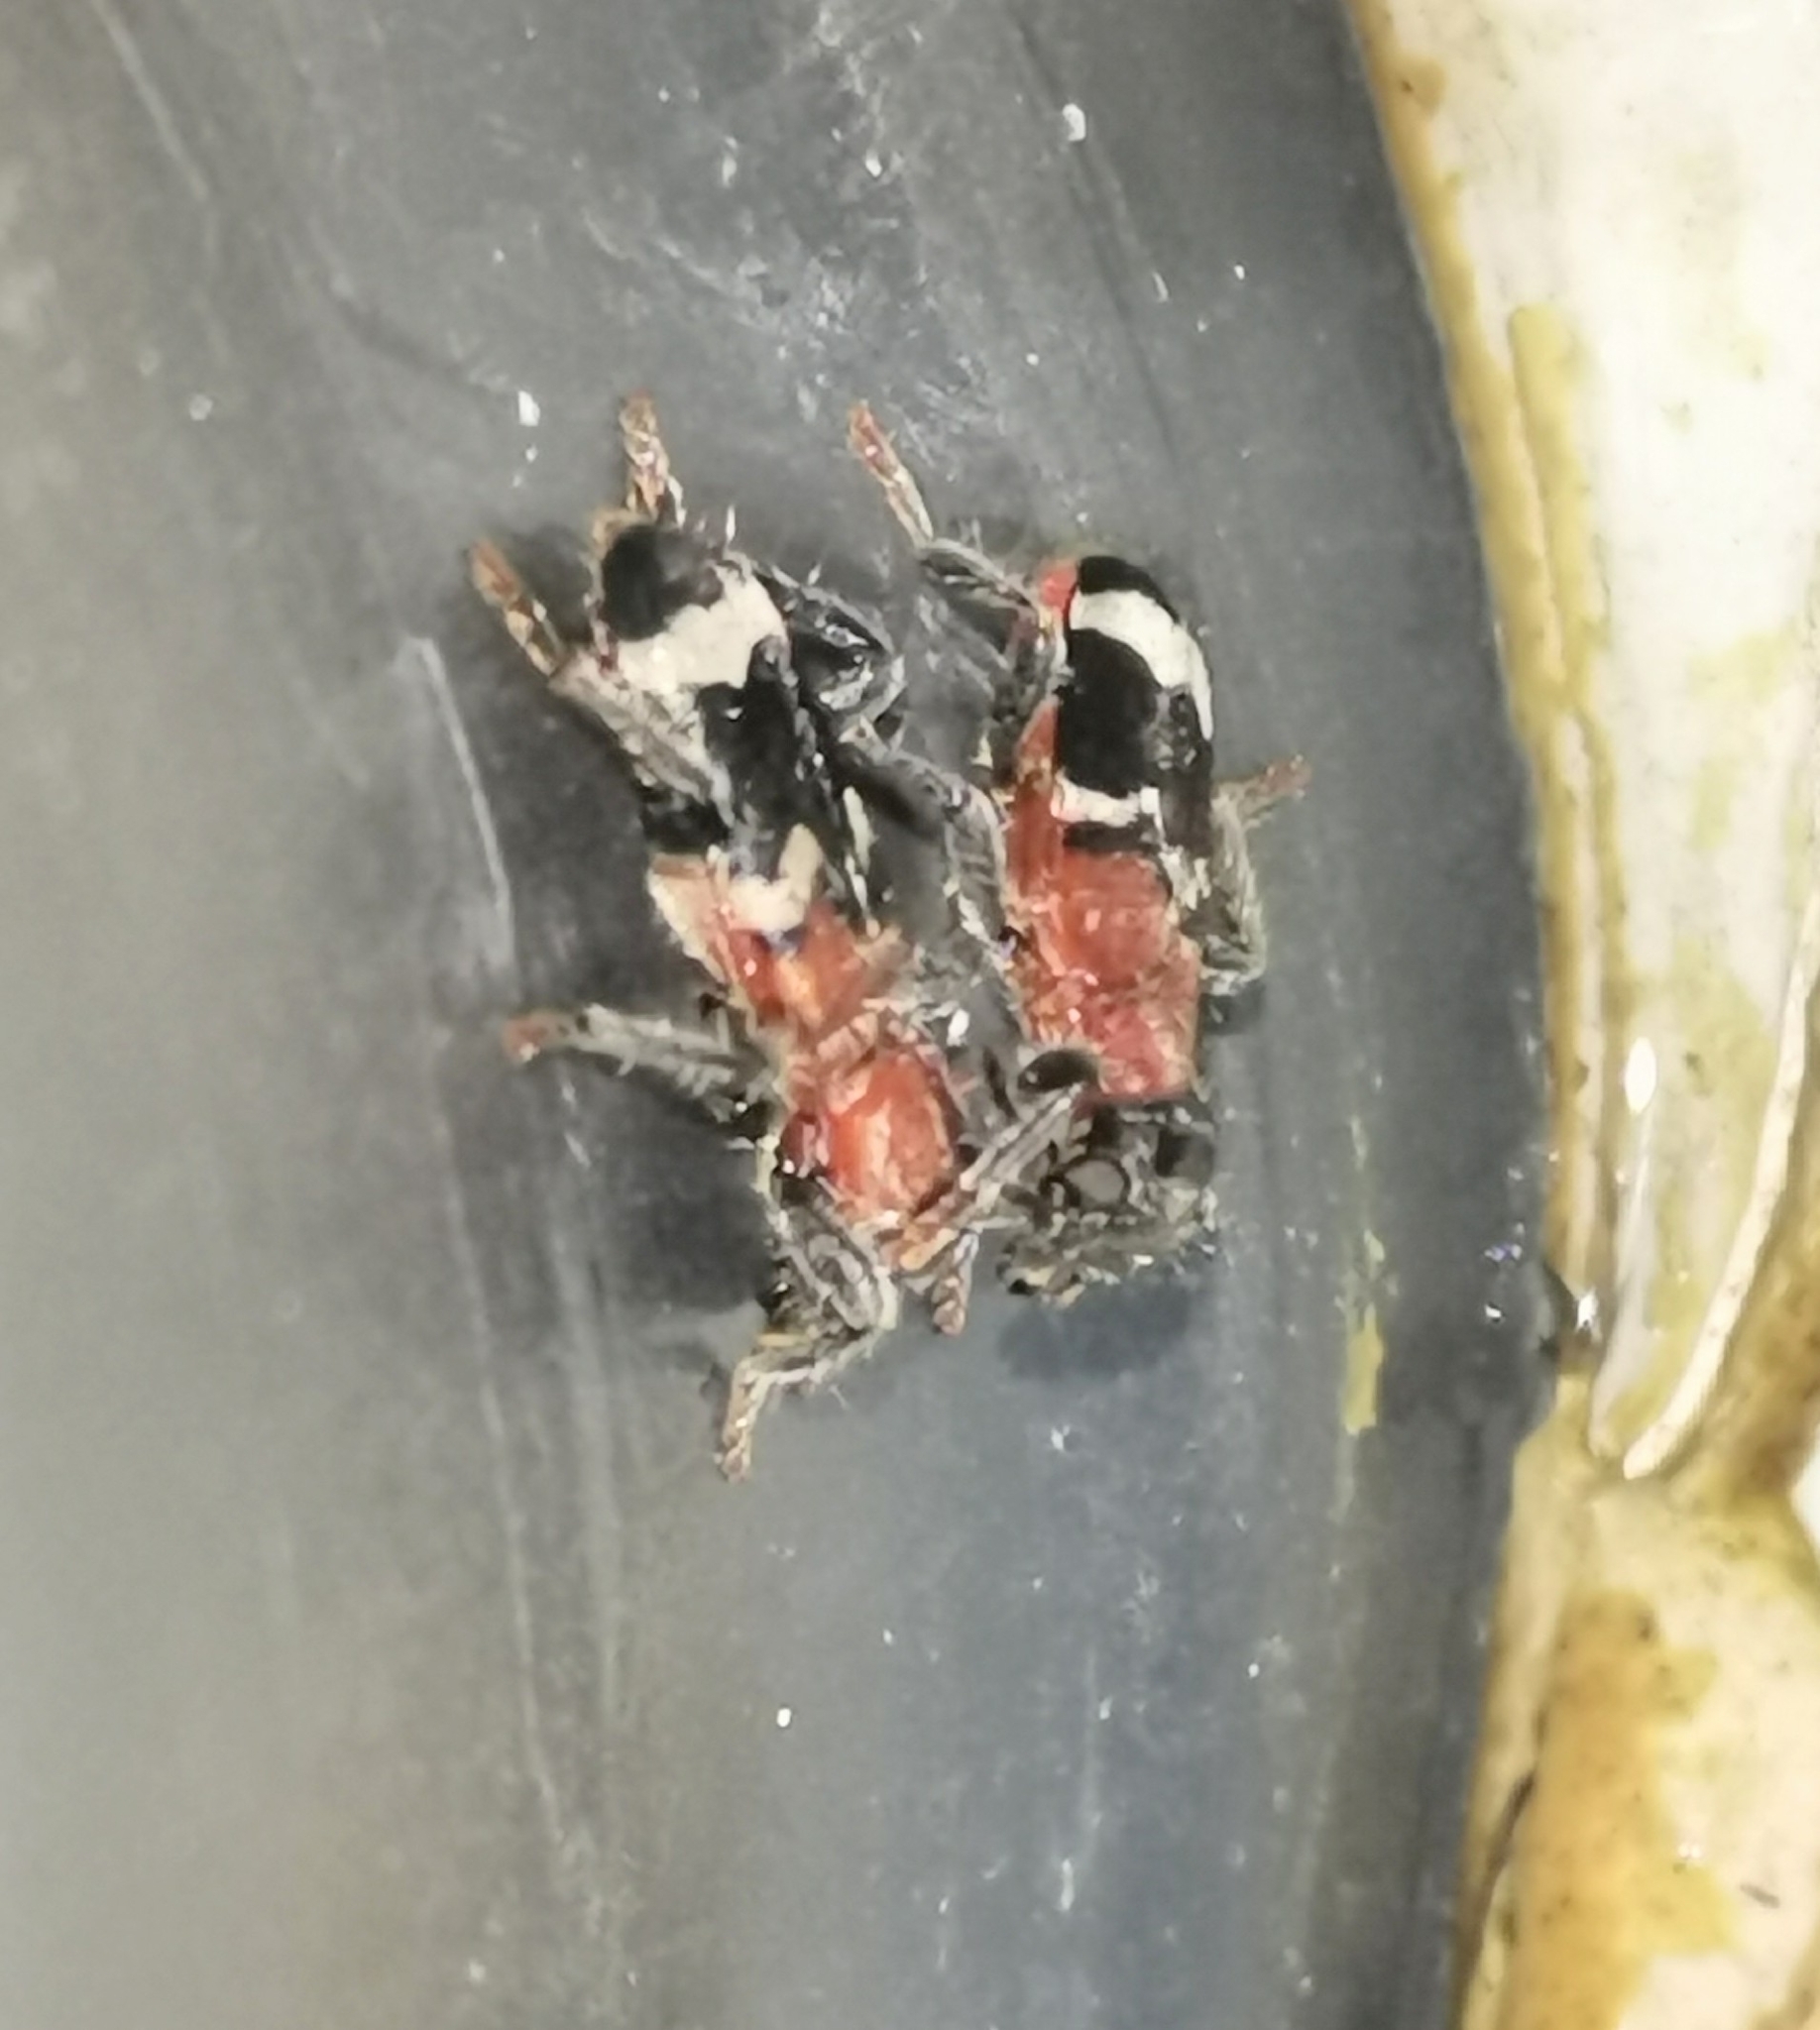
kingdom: Animalia
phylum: Arthropoda
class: Insecta
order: Coleoptera
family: Cleridae
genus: Thanasimus
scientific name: Thanasimus formicarius
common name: Ant beetle
